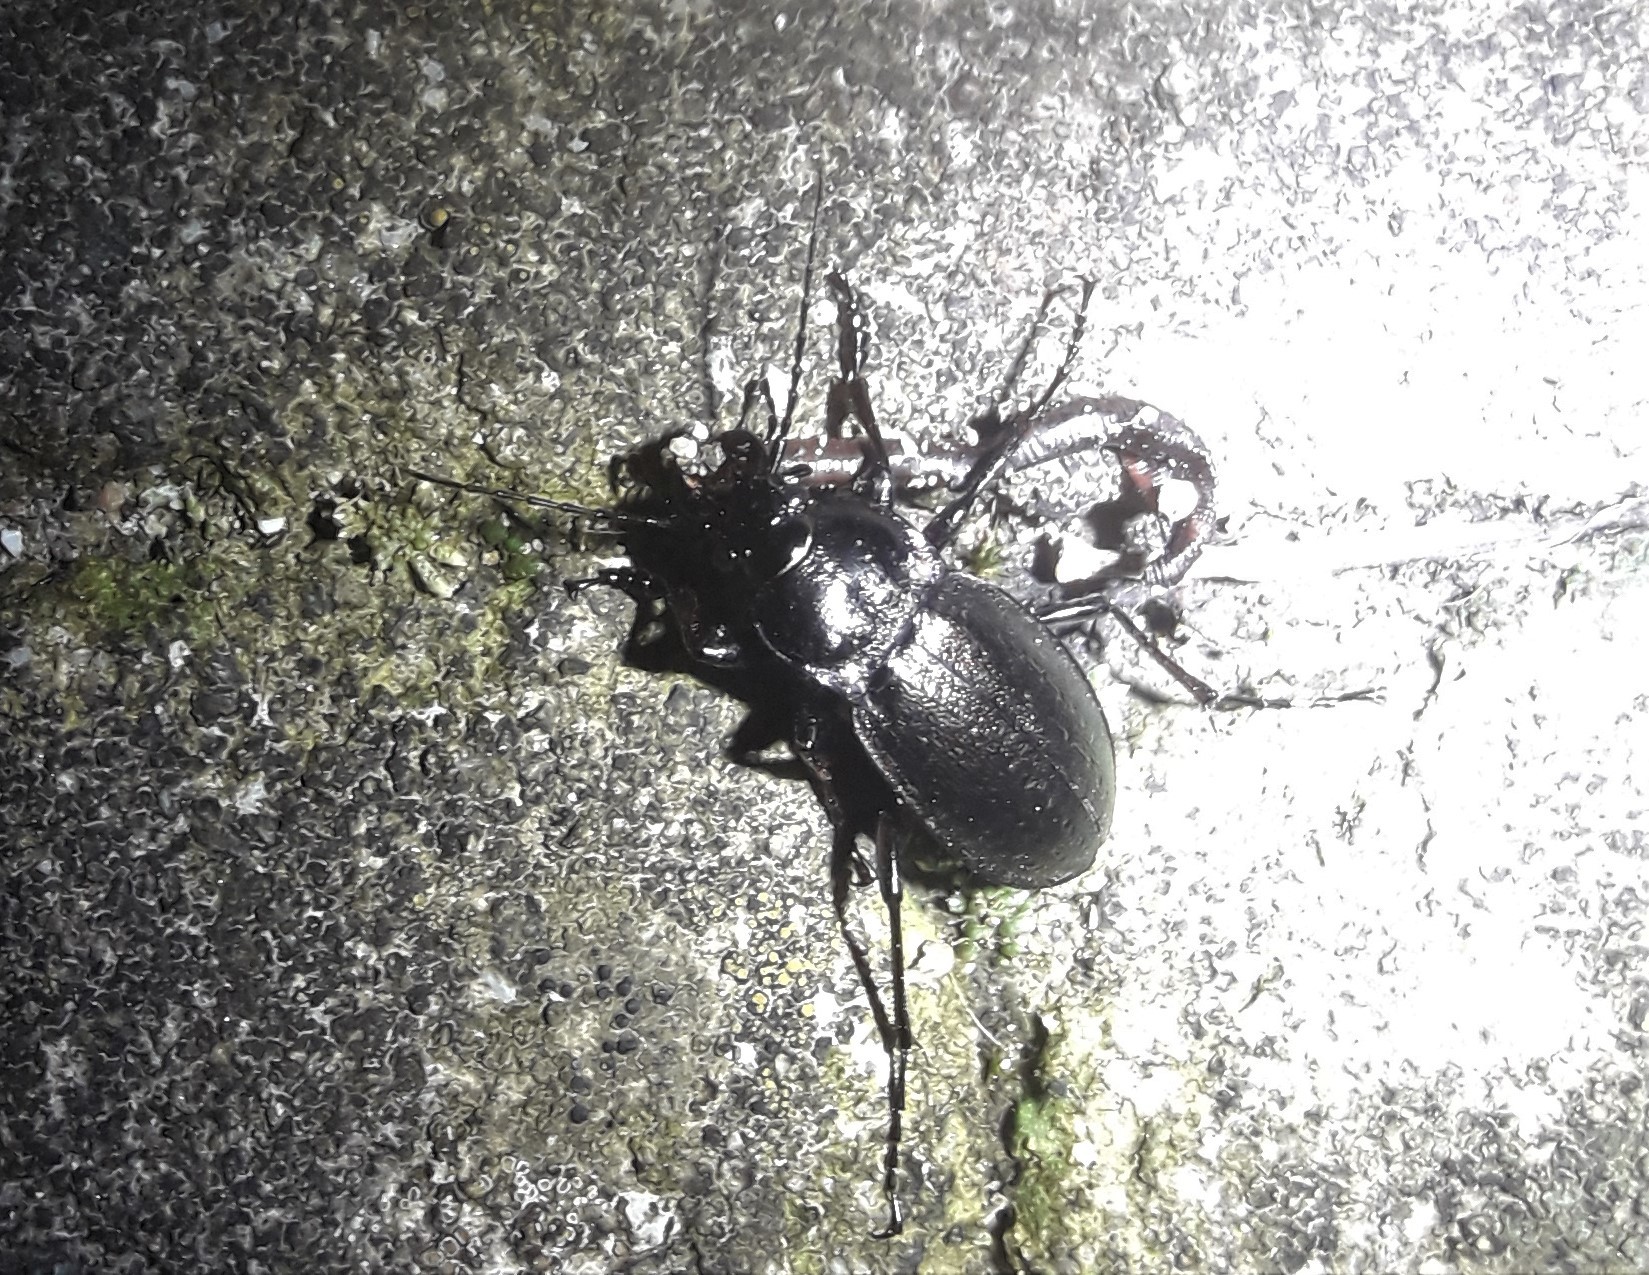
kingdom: Animalia
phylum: Arthropoda
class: Insecta
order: Coleoptera
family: Carabidae
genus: Carabus
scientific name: Carabus nemoralis
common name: European ground beetle
